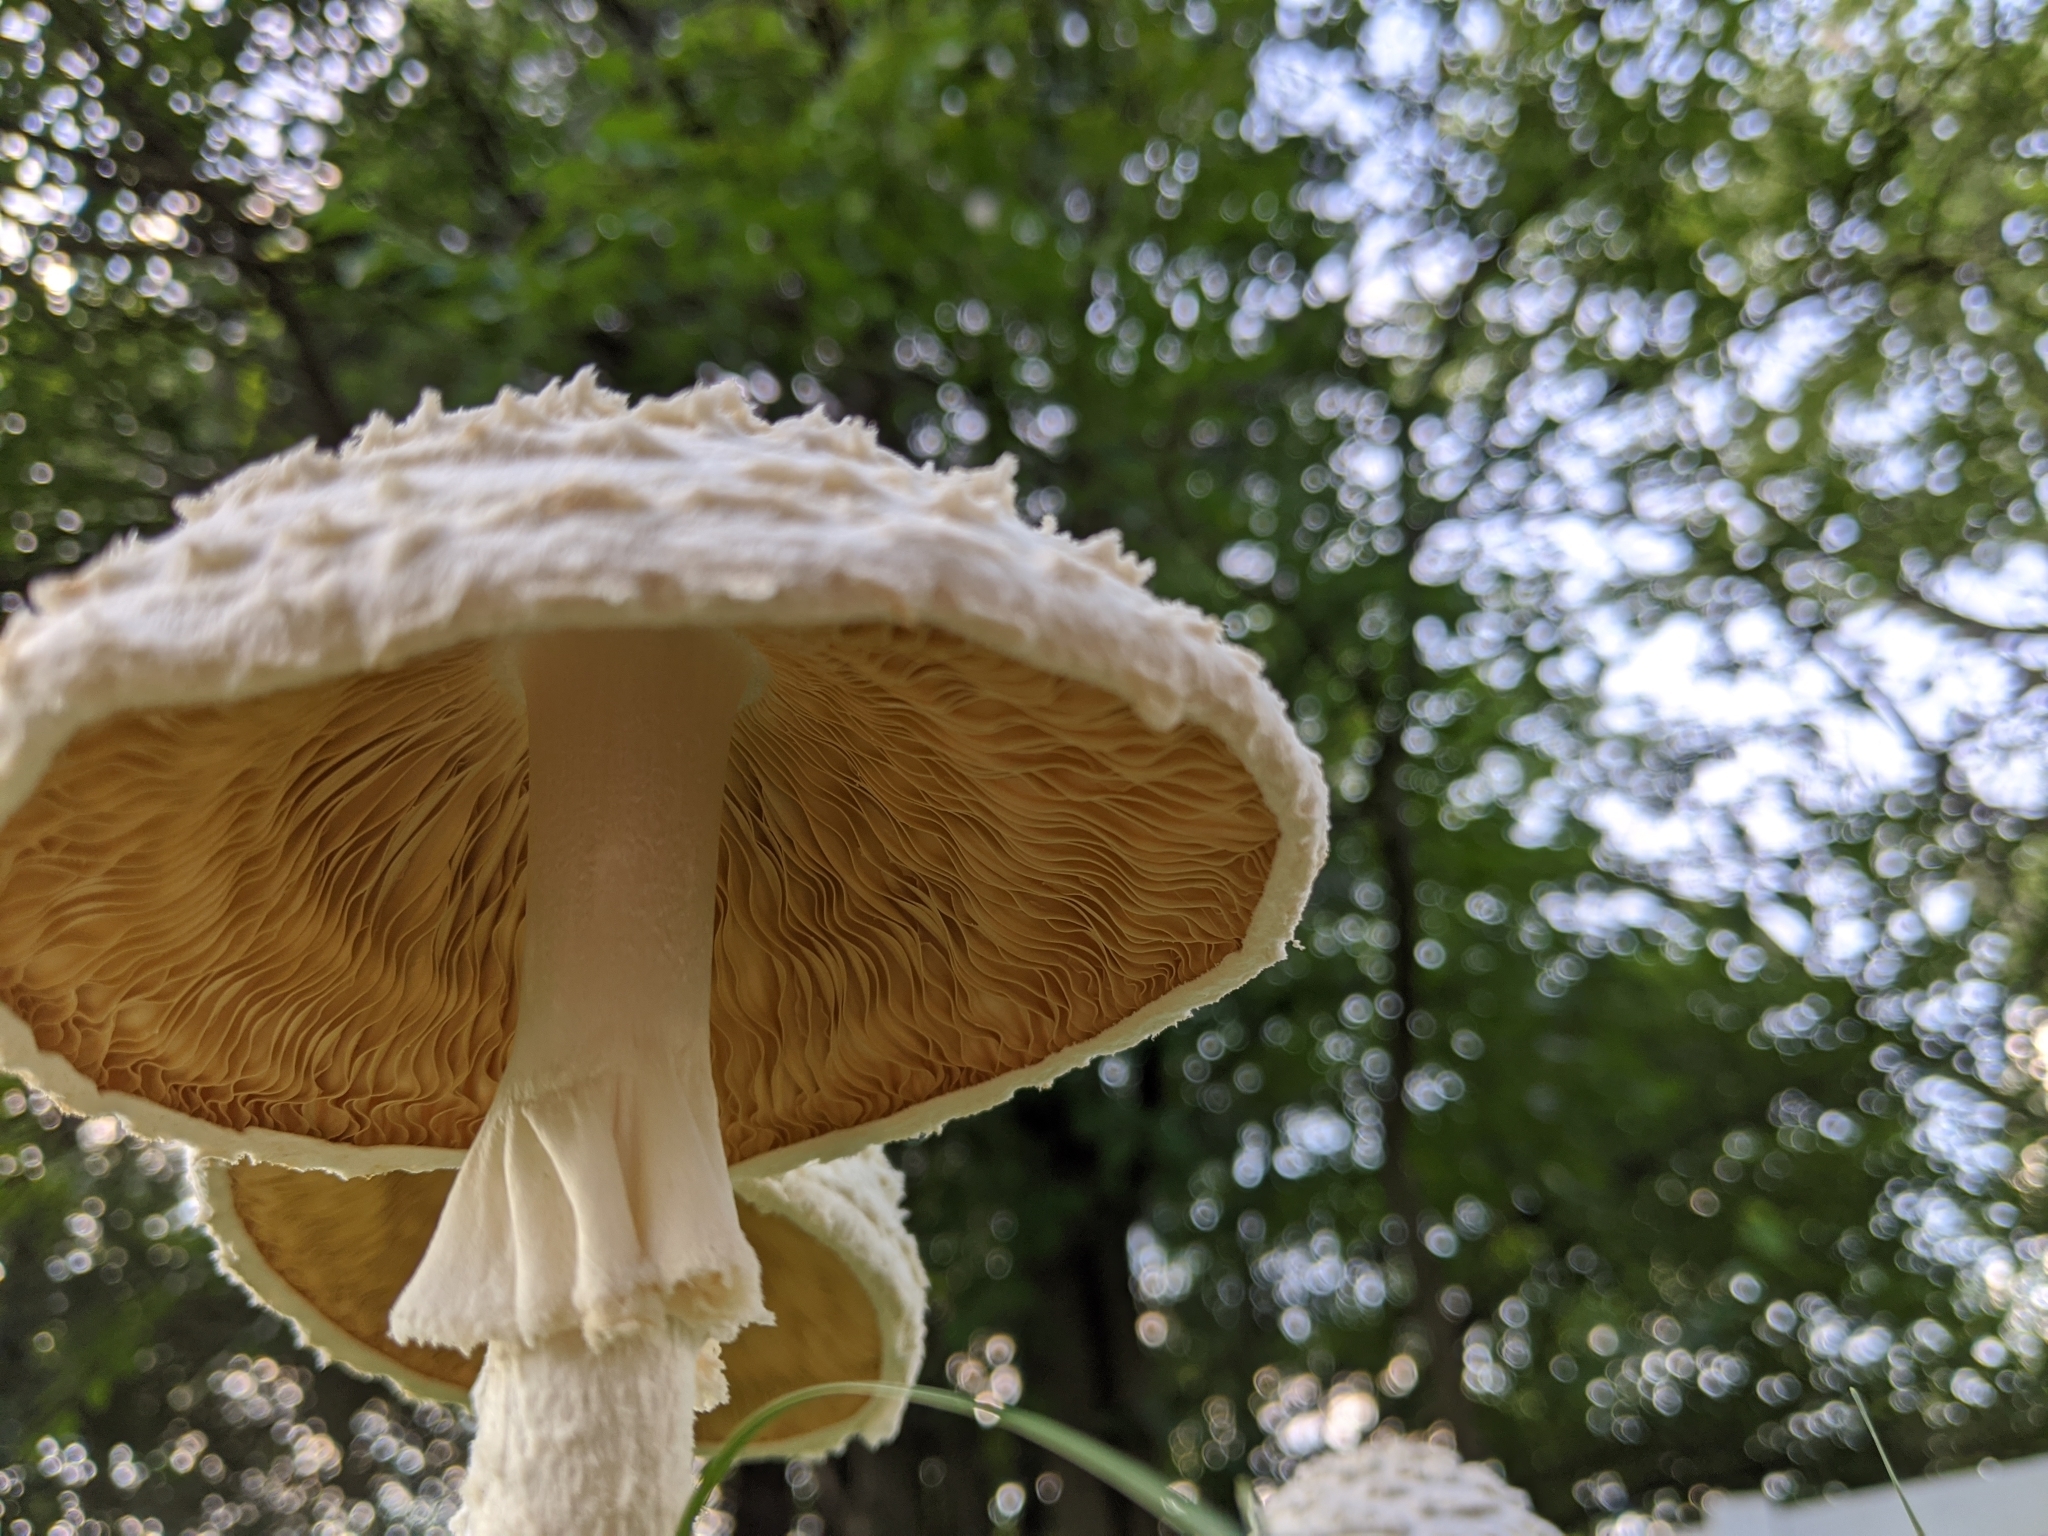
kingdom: Fungi
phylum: Basidiomycota
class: Agaricomycetes
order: Agaricales
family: Amanitaceae
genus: Amanita
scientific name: Amanita thiersii
